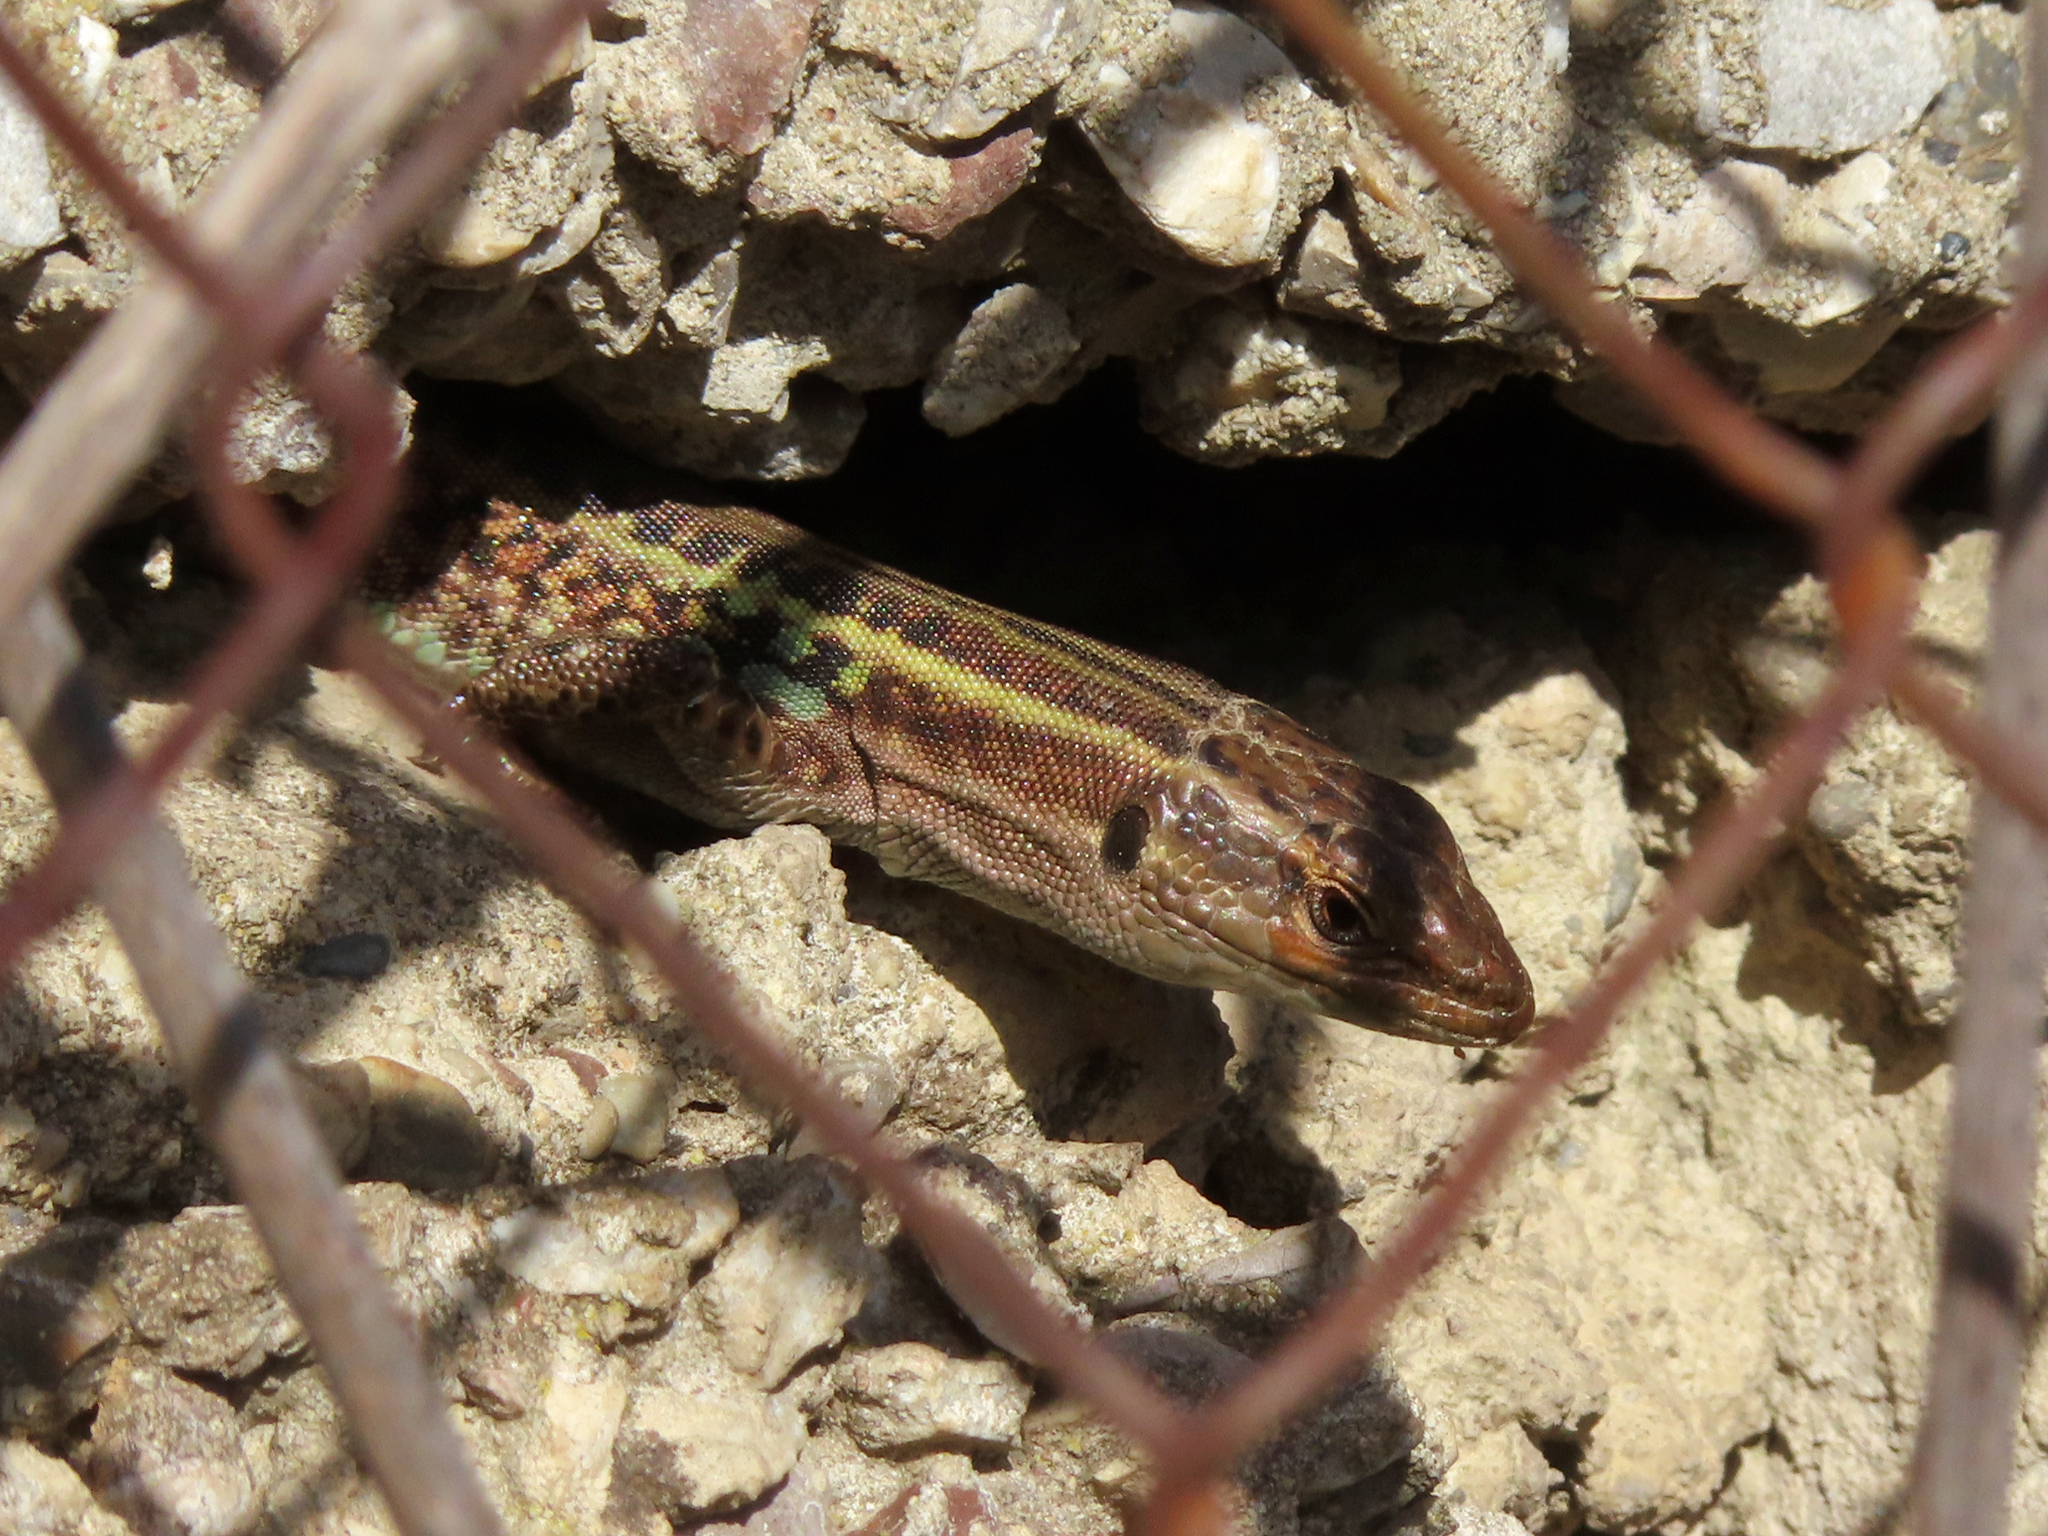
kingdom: Animalia
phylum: Chordata
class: Squamata
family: Lacertidae
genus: Podarcis
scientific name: Podarcis peloponnesiacus
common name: Peloponnese wall lizard
